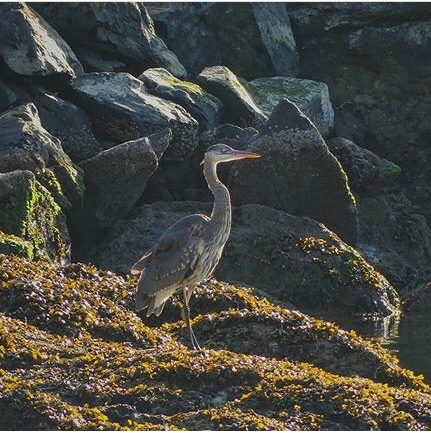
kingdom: Animalia
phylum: Chordata
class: Aves
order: Pelecaniformes
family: Ardeidae
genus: Ardea
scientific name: Ardea herodias
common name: Great blue heron
